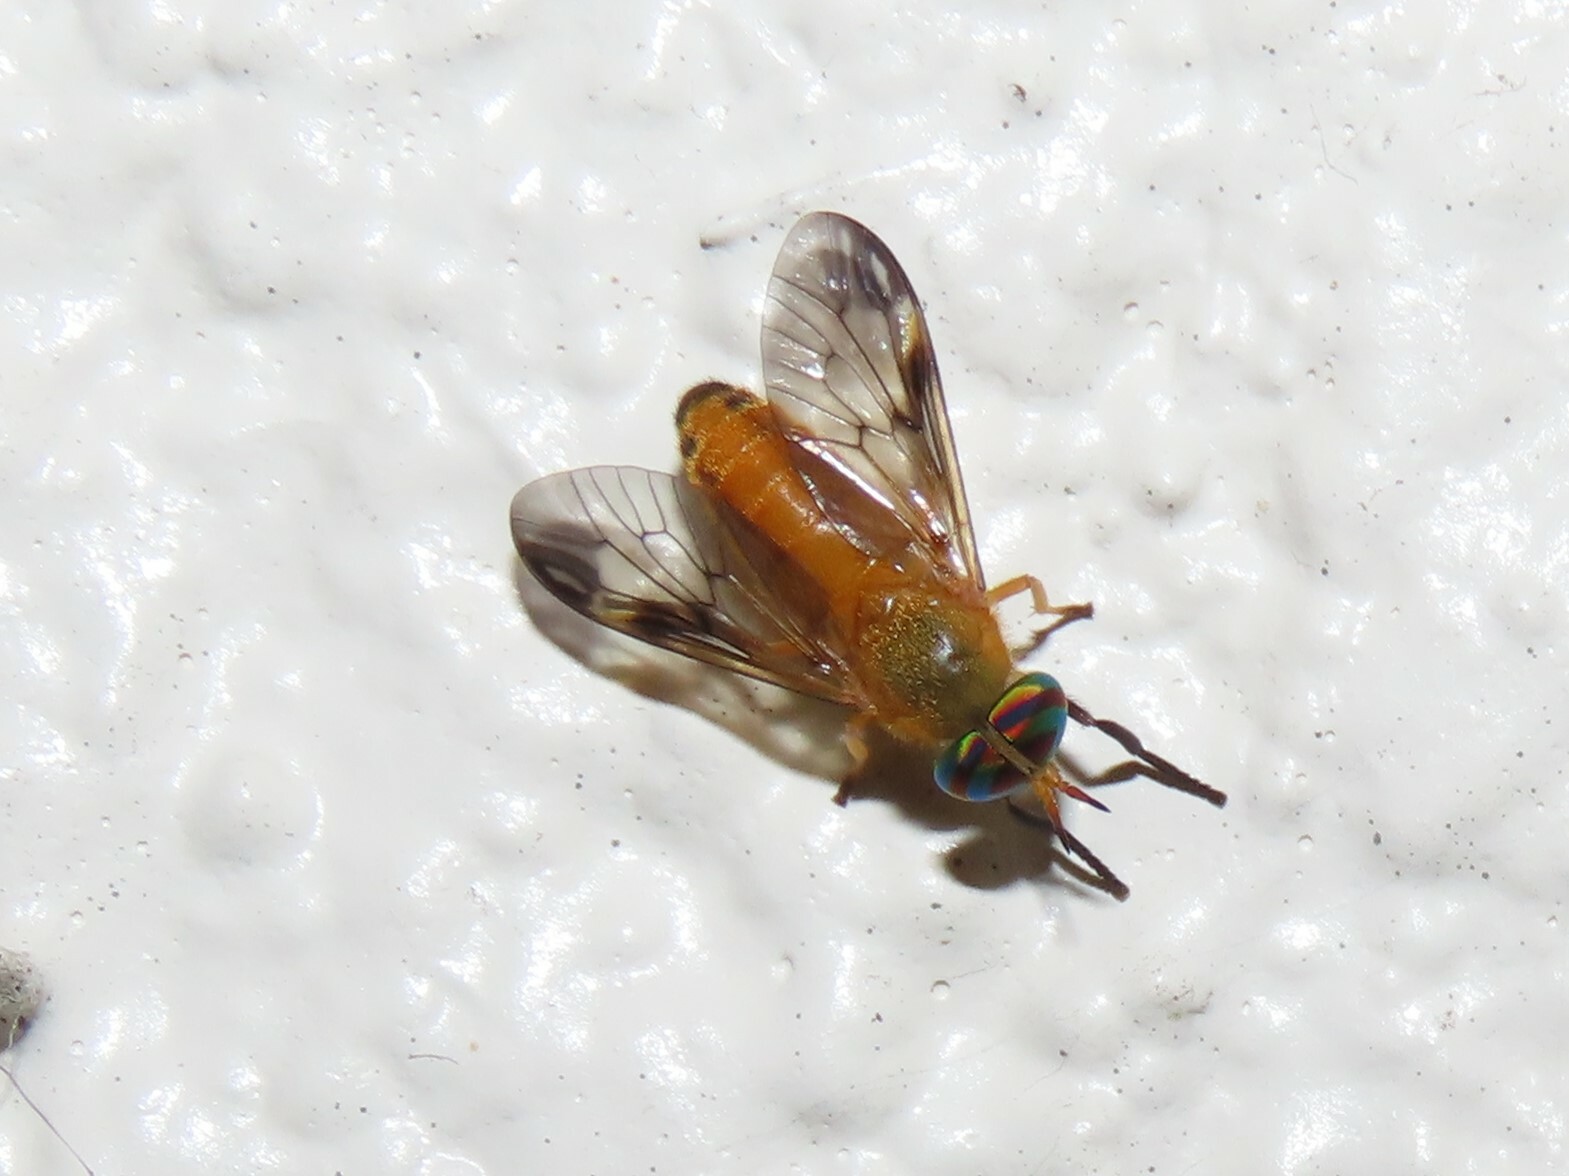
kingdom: Animalia
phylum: Arthropoda
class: Insecta
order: Diptera
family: Tabanidae
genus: Diachlorus
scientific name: Diachlorus ferrugatus
